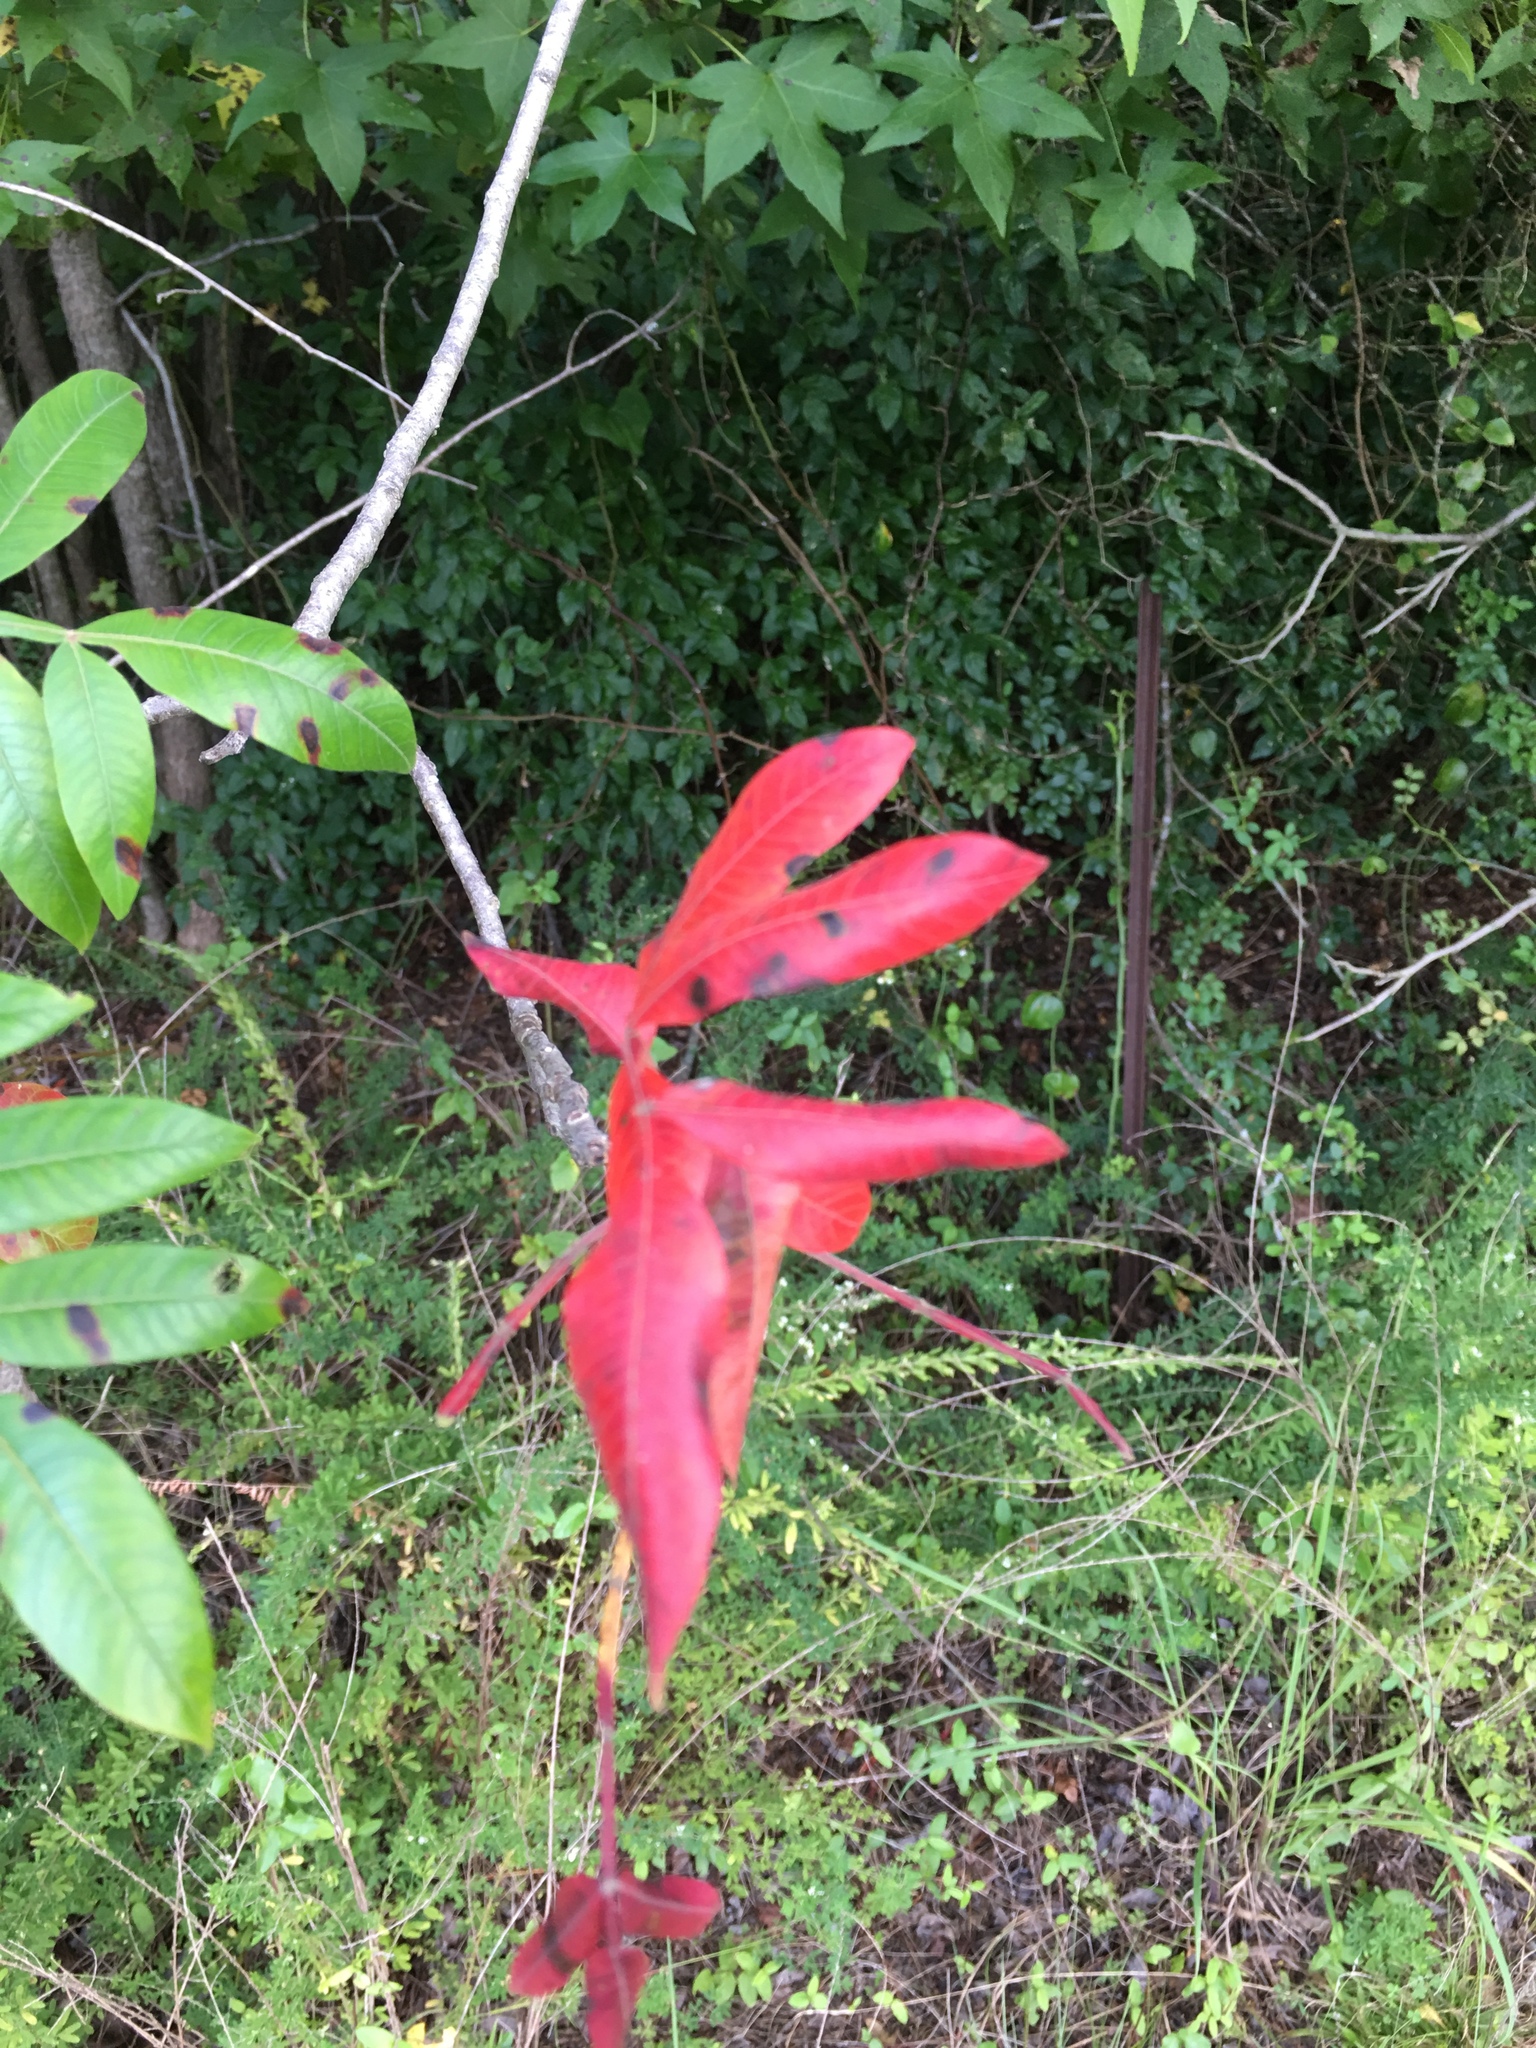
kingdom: Plantae
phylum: Tracheophyta
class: Magnoliopsida
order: Sapindales
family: Anacardiaceae
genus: Rhus
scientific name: Rhus copallina
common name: Shining sumac
